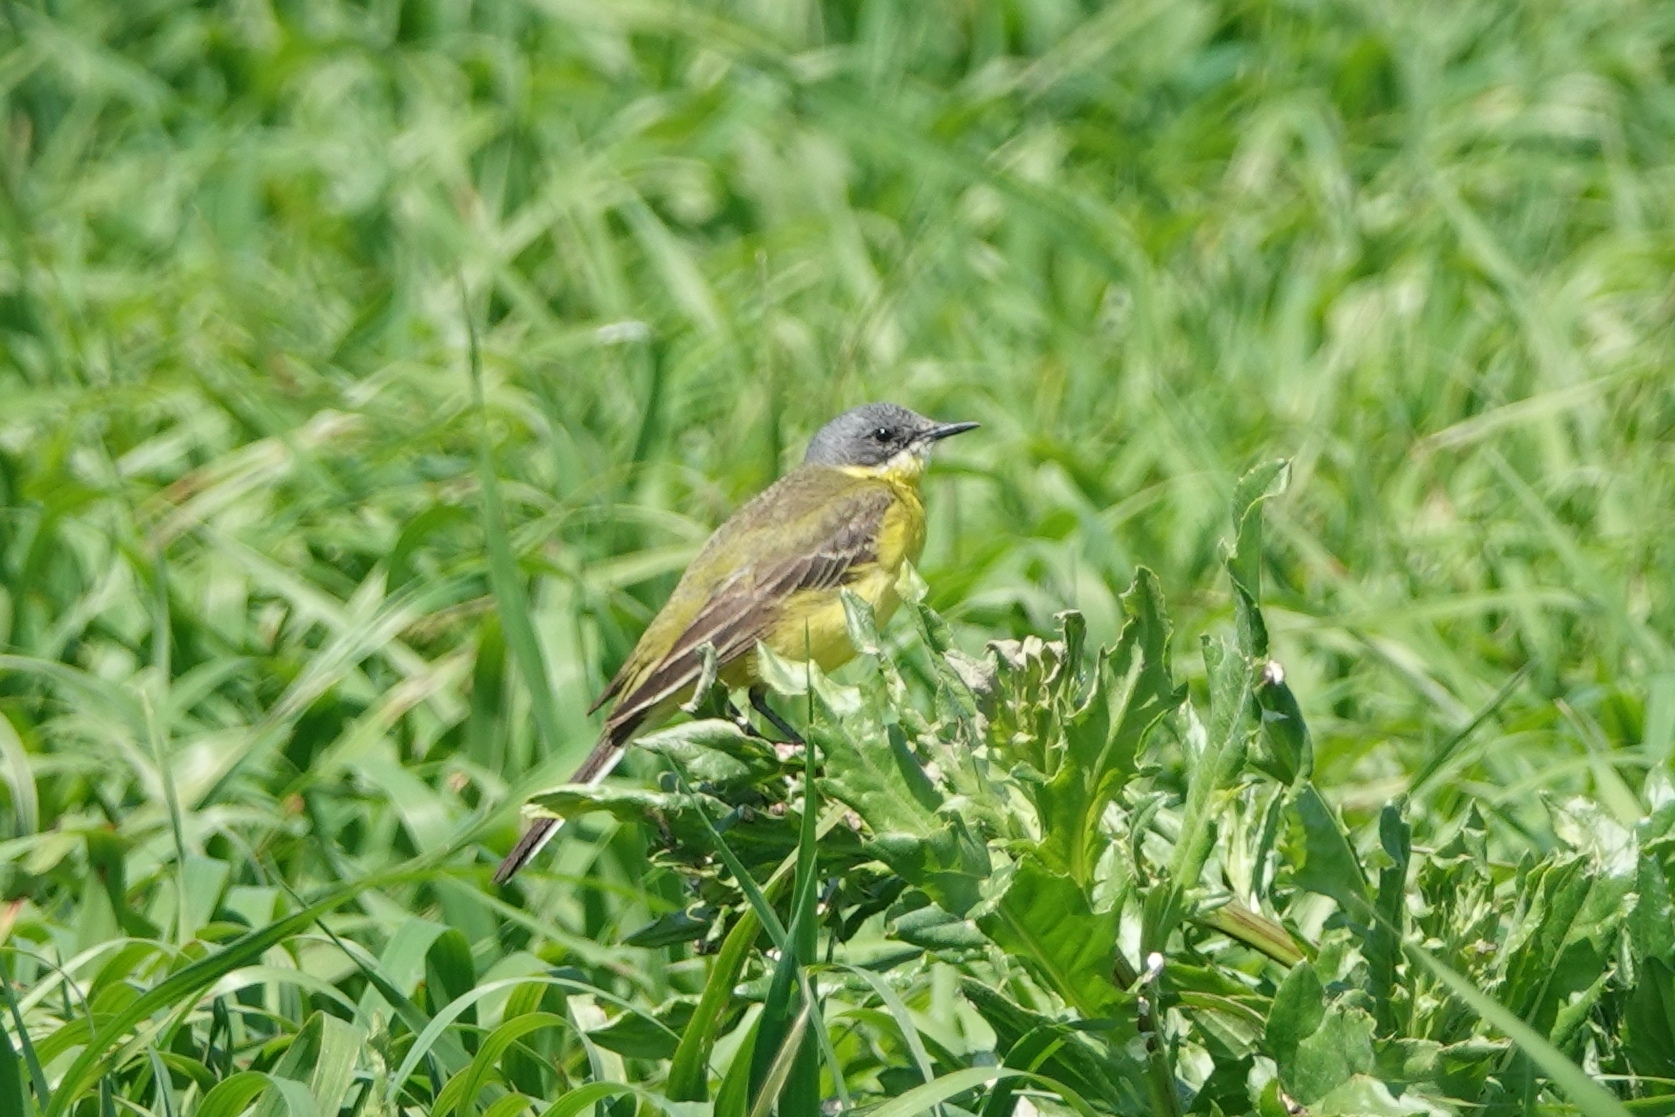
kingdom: Animalia
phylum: Chordata
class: Aves
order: Passeriformes
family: Motacillidae
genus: Motacilla
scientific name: Motacilla flava
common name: Western yellow wagtail
